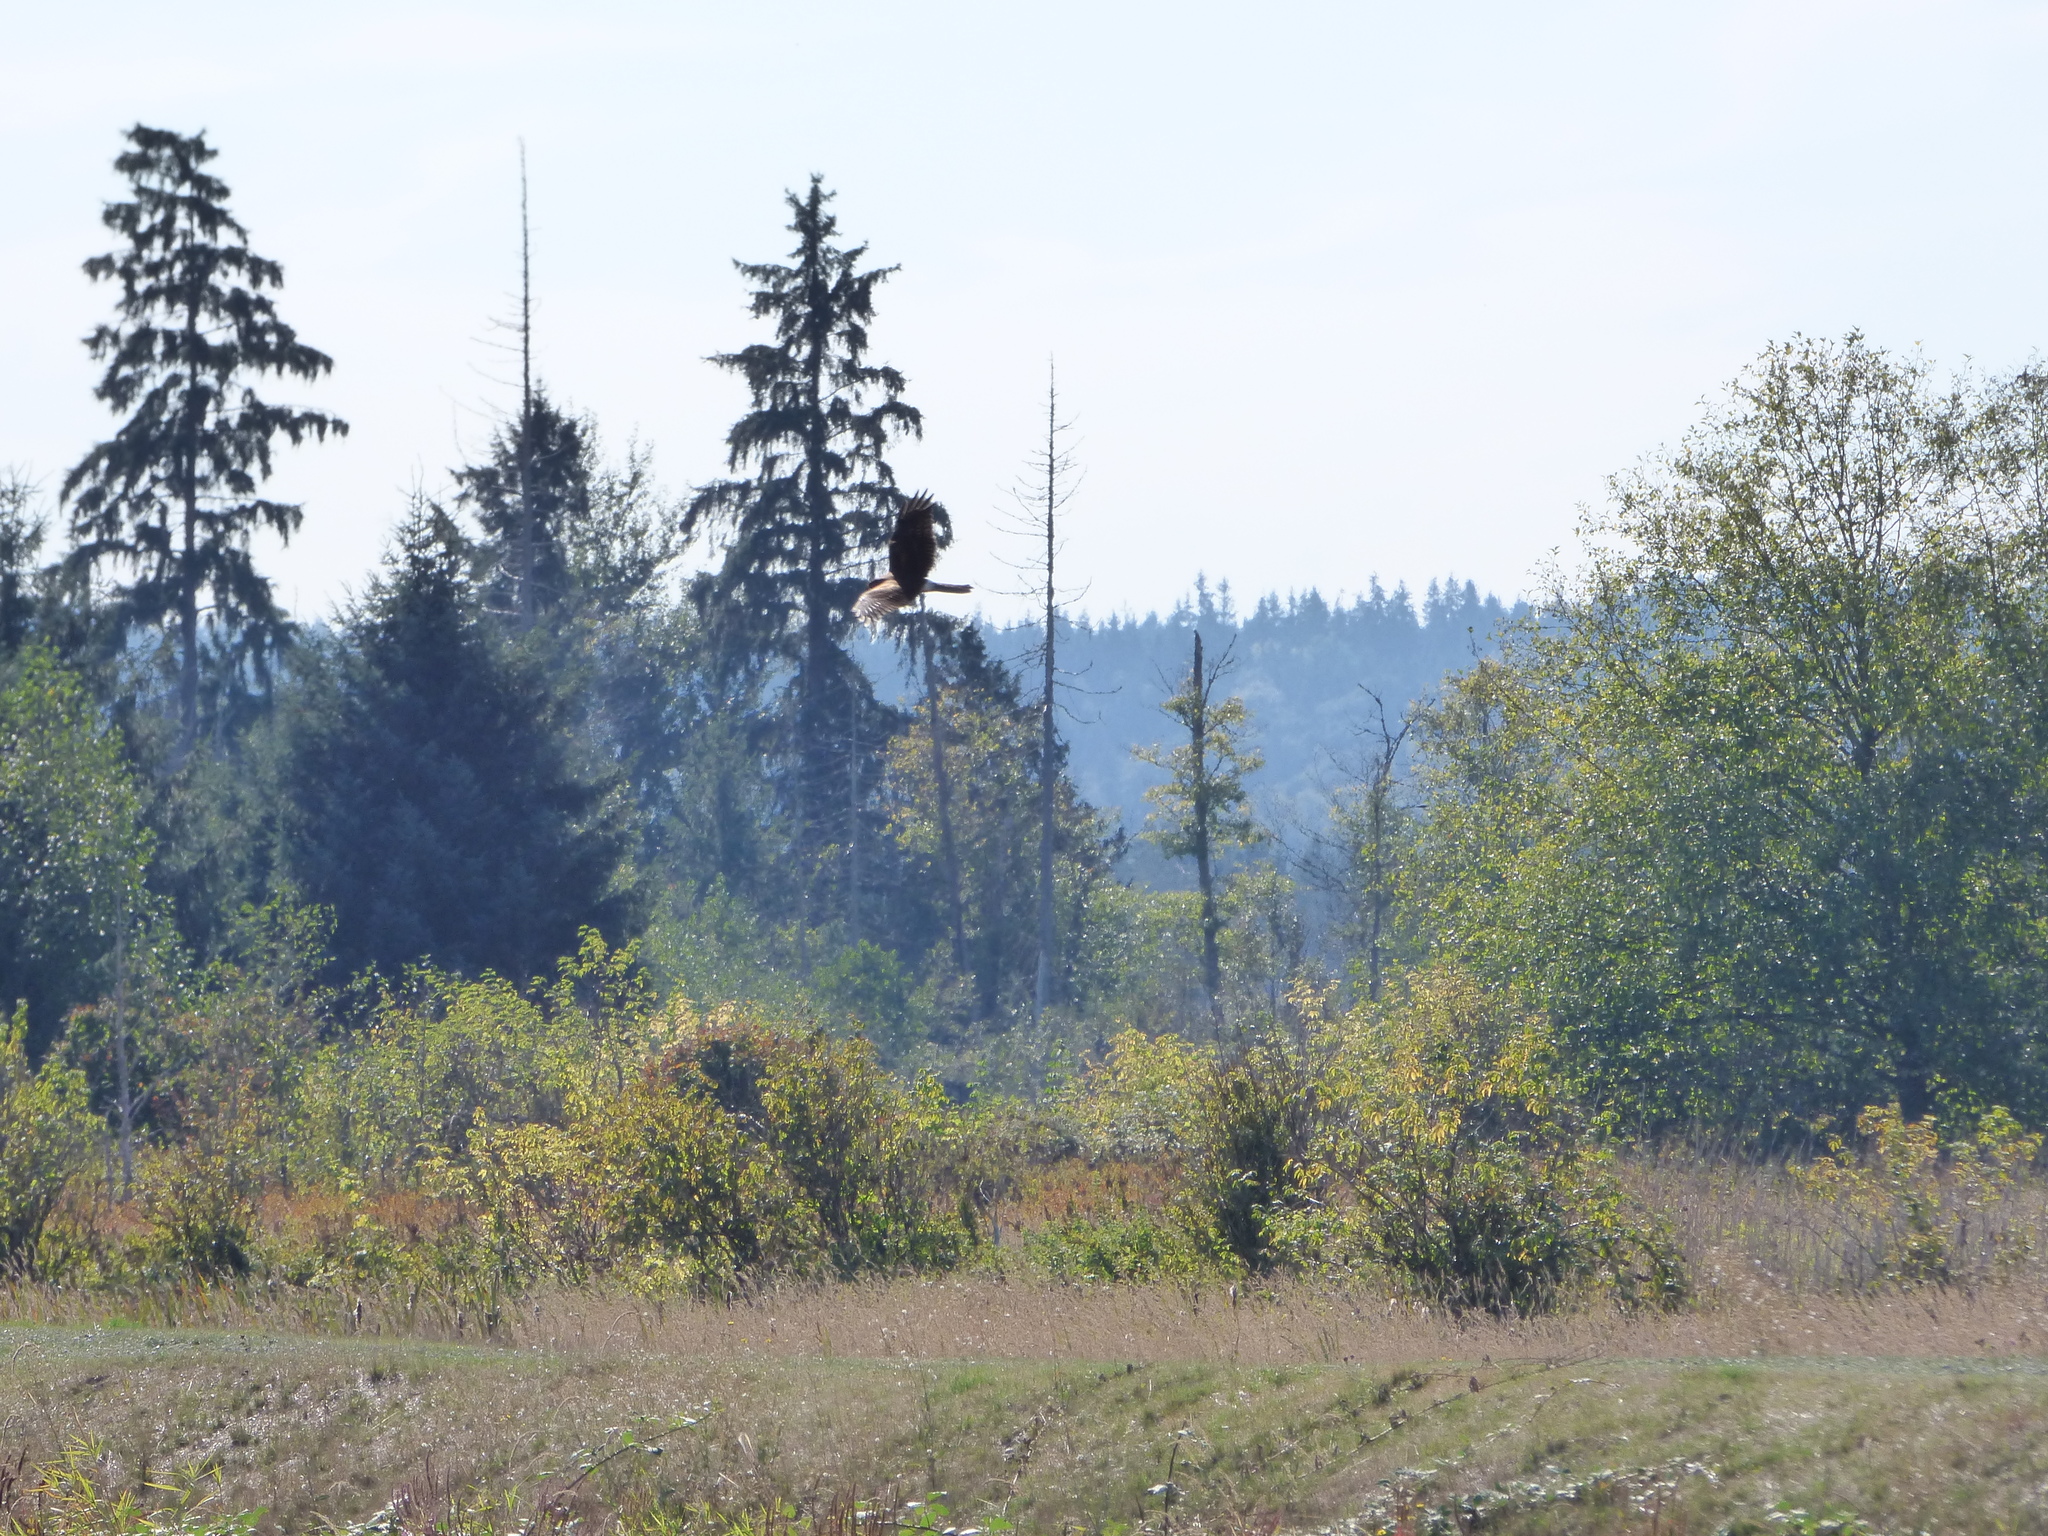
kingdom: Animalia
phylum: Chordata
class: Aves
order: Accipitriformes
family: Accipitridae
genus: Circus
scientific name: Circus cyaneus
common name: Hen harrier
